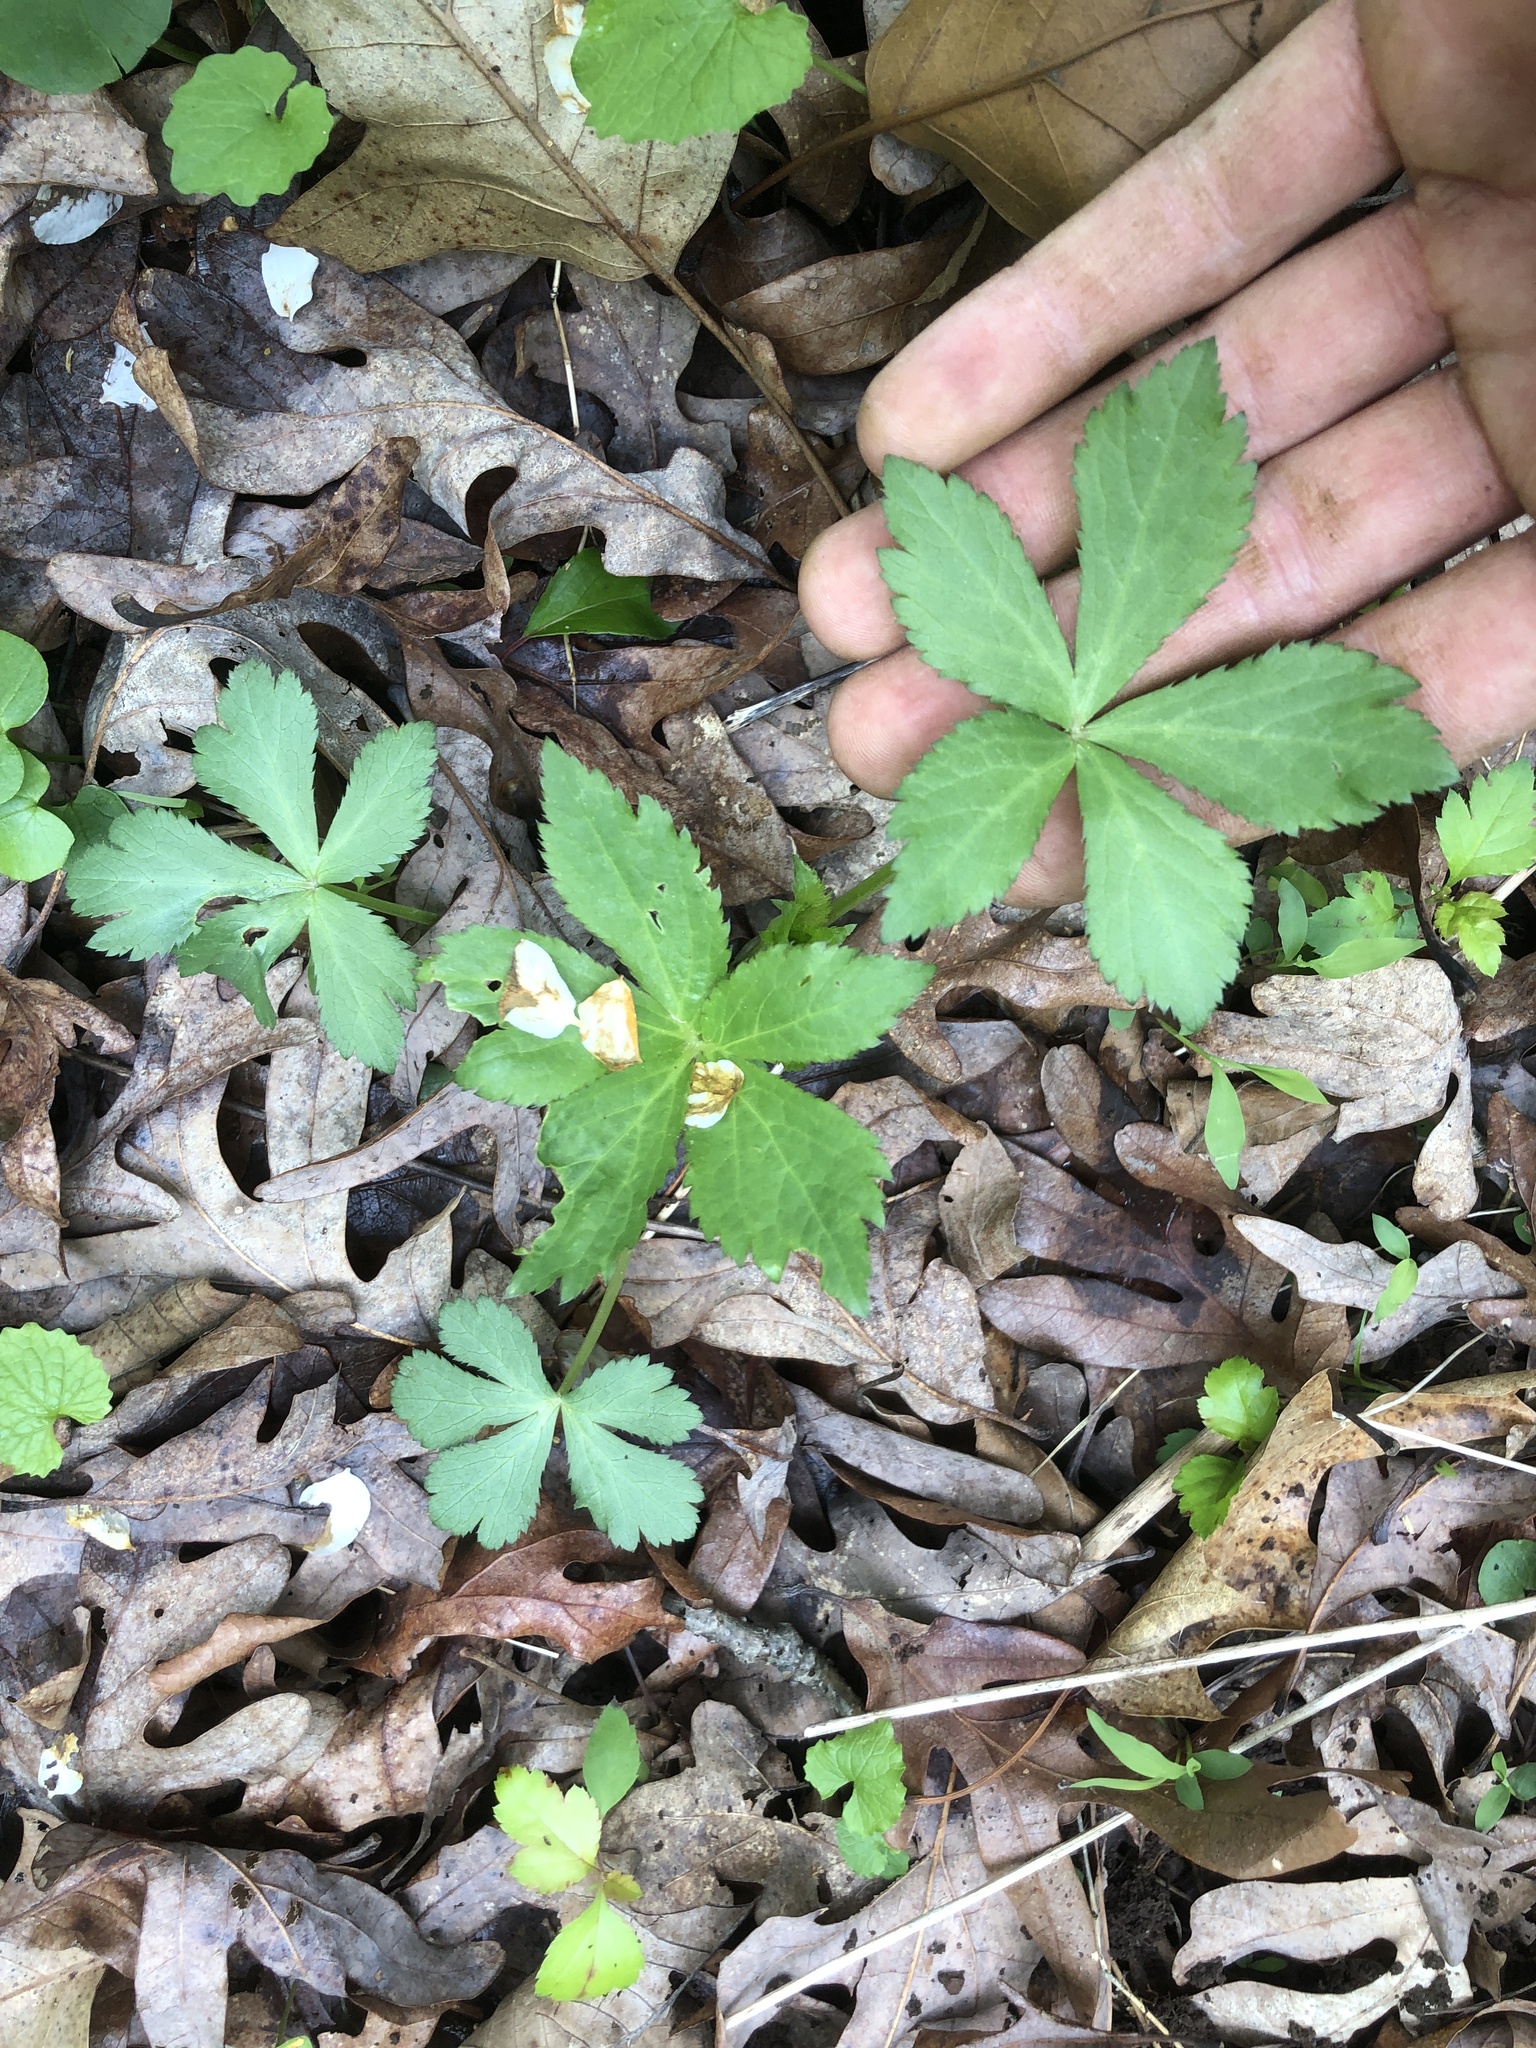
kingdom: Plantae
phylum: Tracheophyta
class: Magnoliopsida
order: Apiales
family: Apiaceae
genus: Sanicula
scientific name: Sanicula canadensis
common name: Canada sanicle
